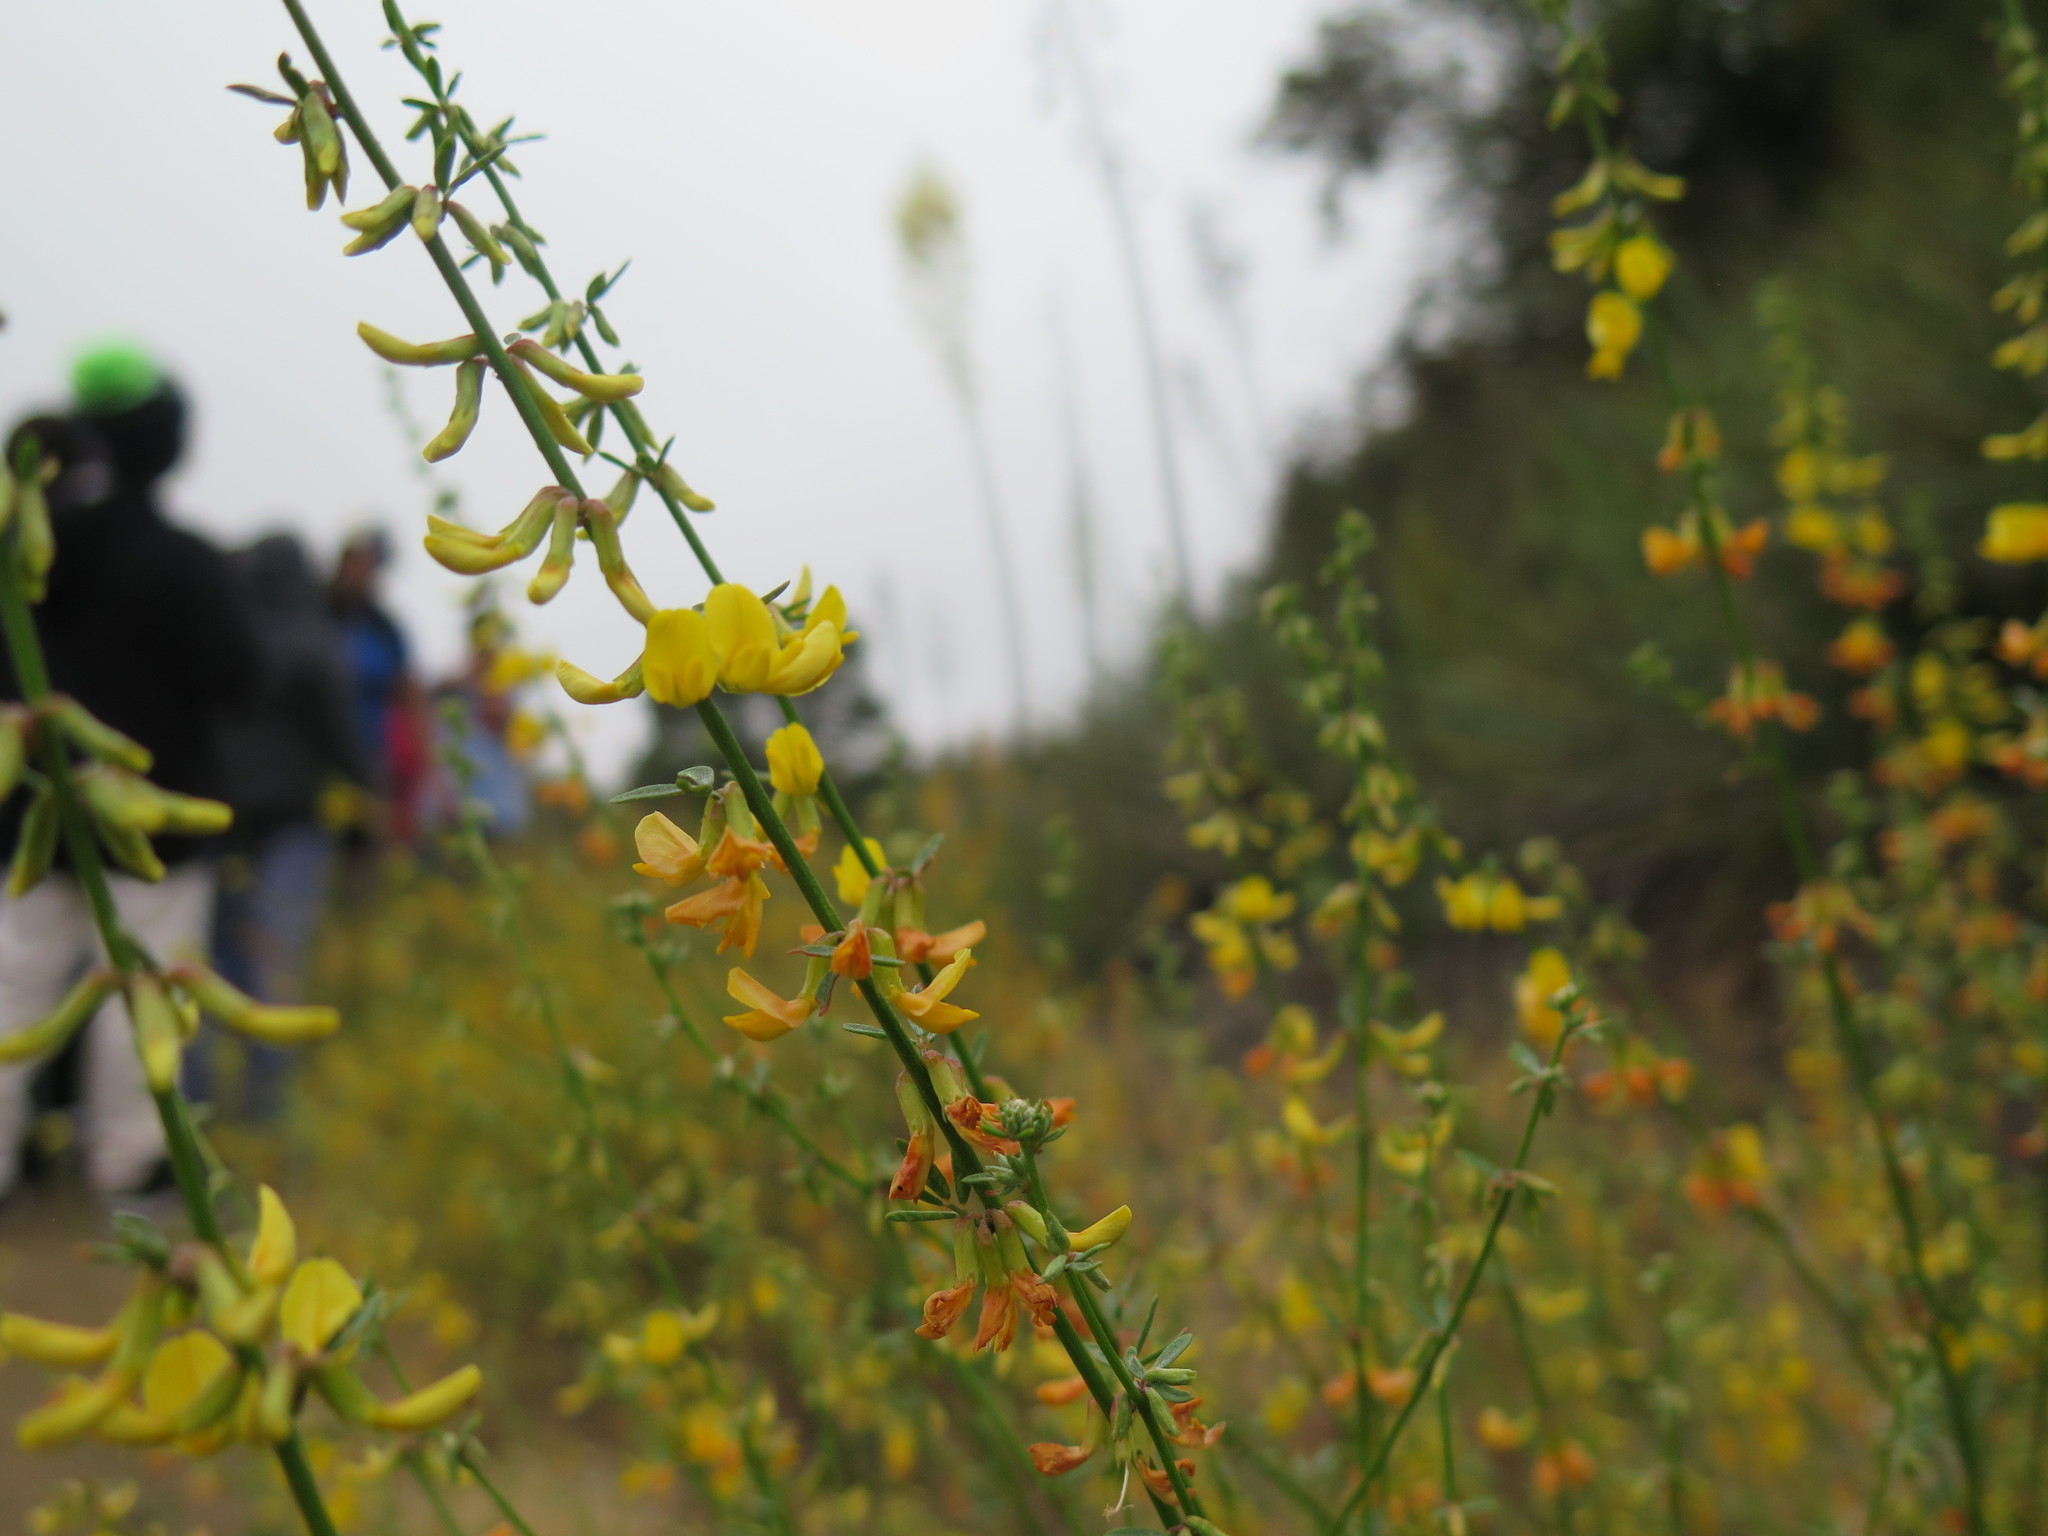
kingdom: Plantae
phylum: Tracheophyta
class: Magnoliopsida
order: Fabales
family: Fabaceae
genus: Acmispon
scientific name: Acmispon glaber
